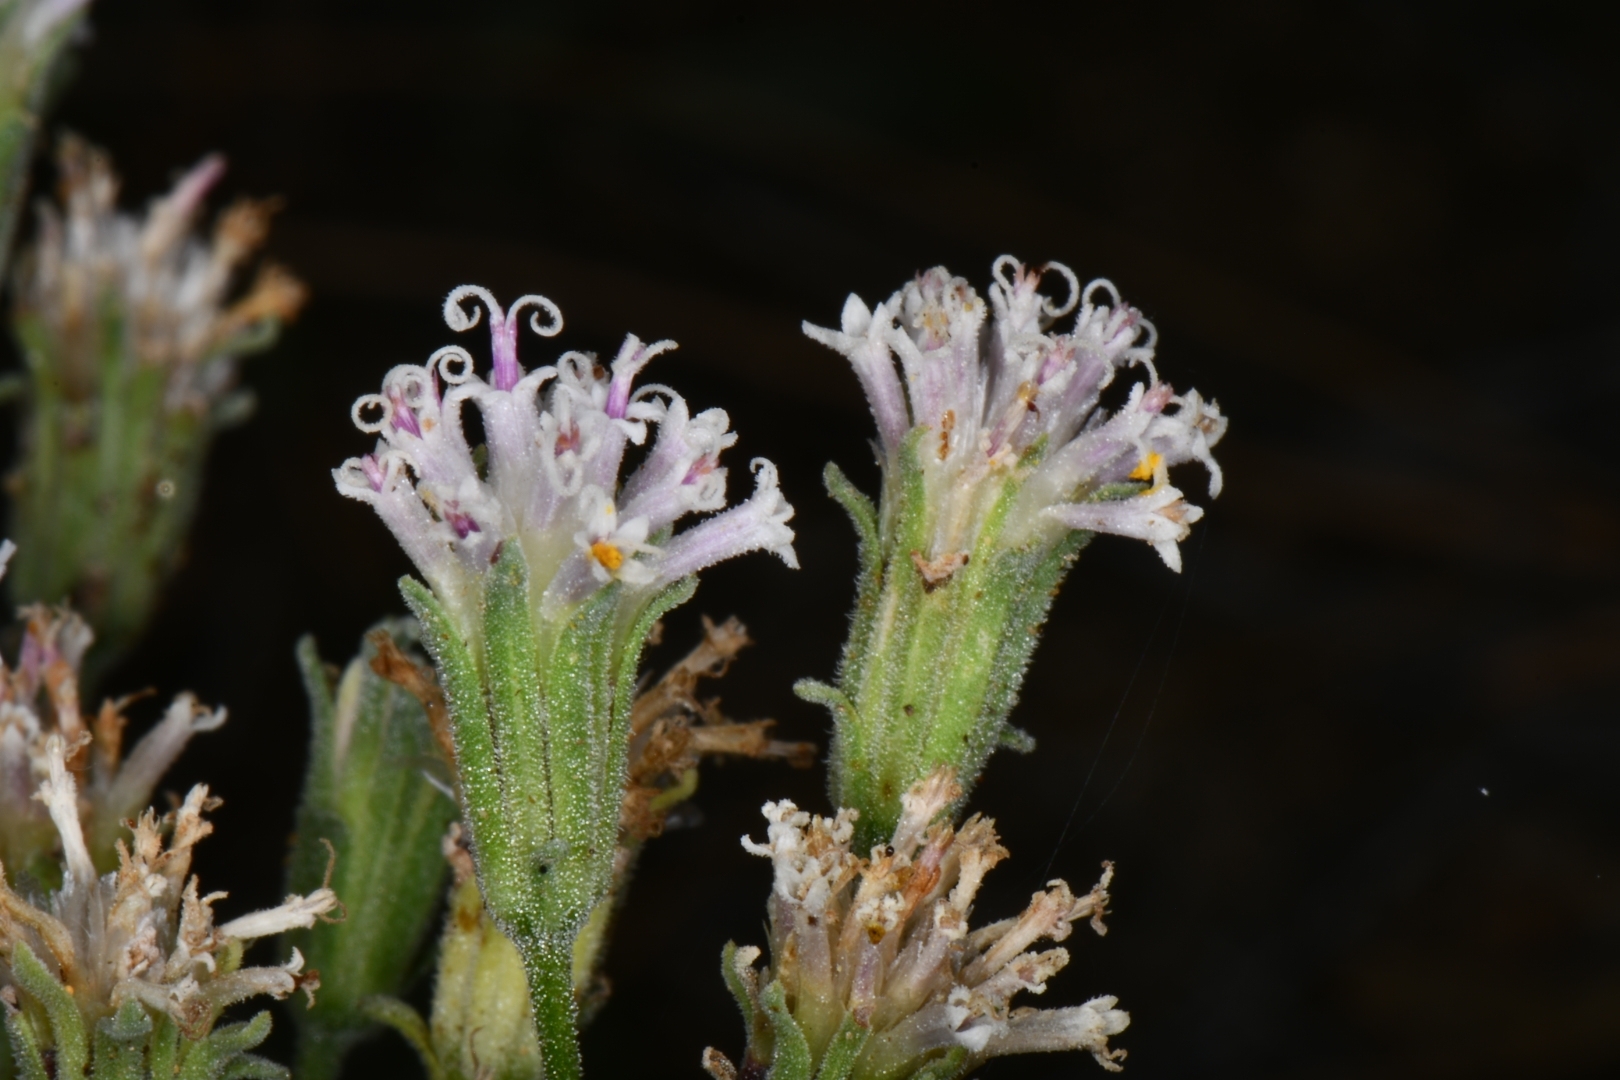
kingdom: Plantae
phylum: Tracheophyta
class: Magnoliopsida
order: Asterales
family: Asteraceae
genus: Chaenactis
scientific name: Chaenactis douglasii
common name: Hoary pincushion
